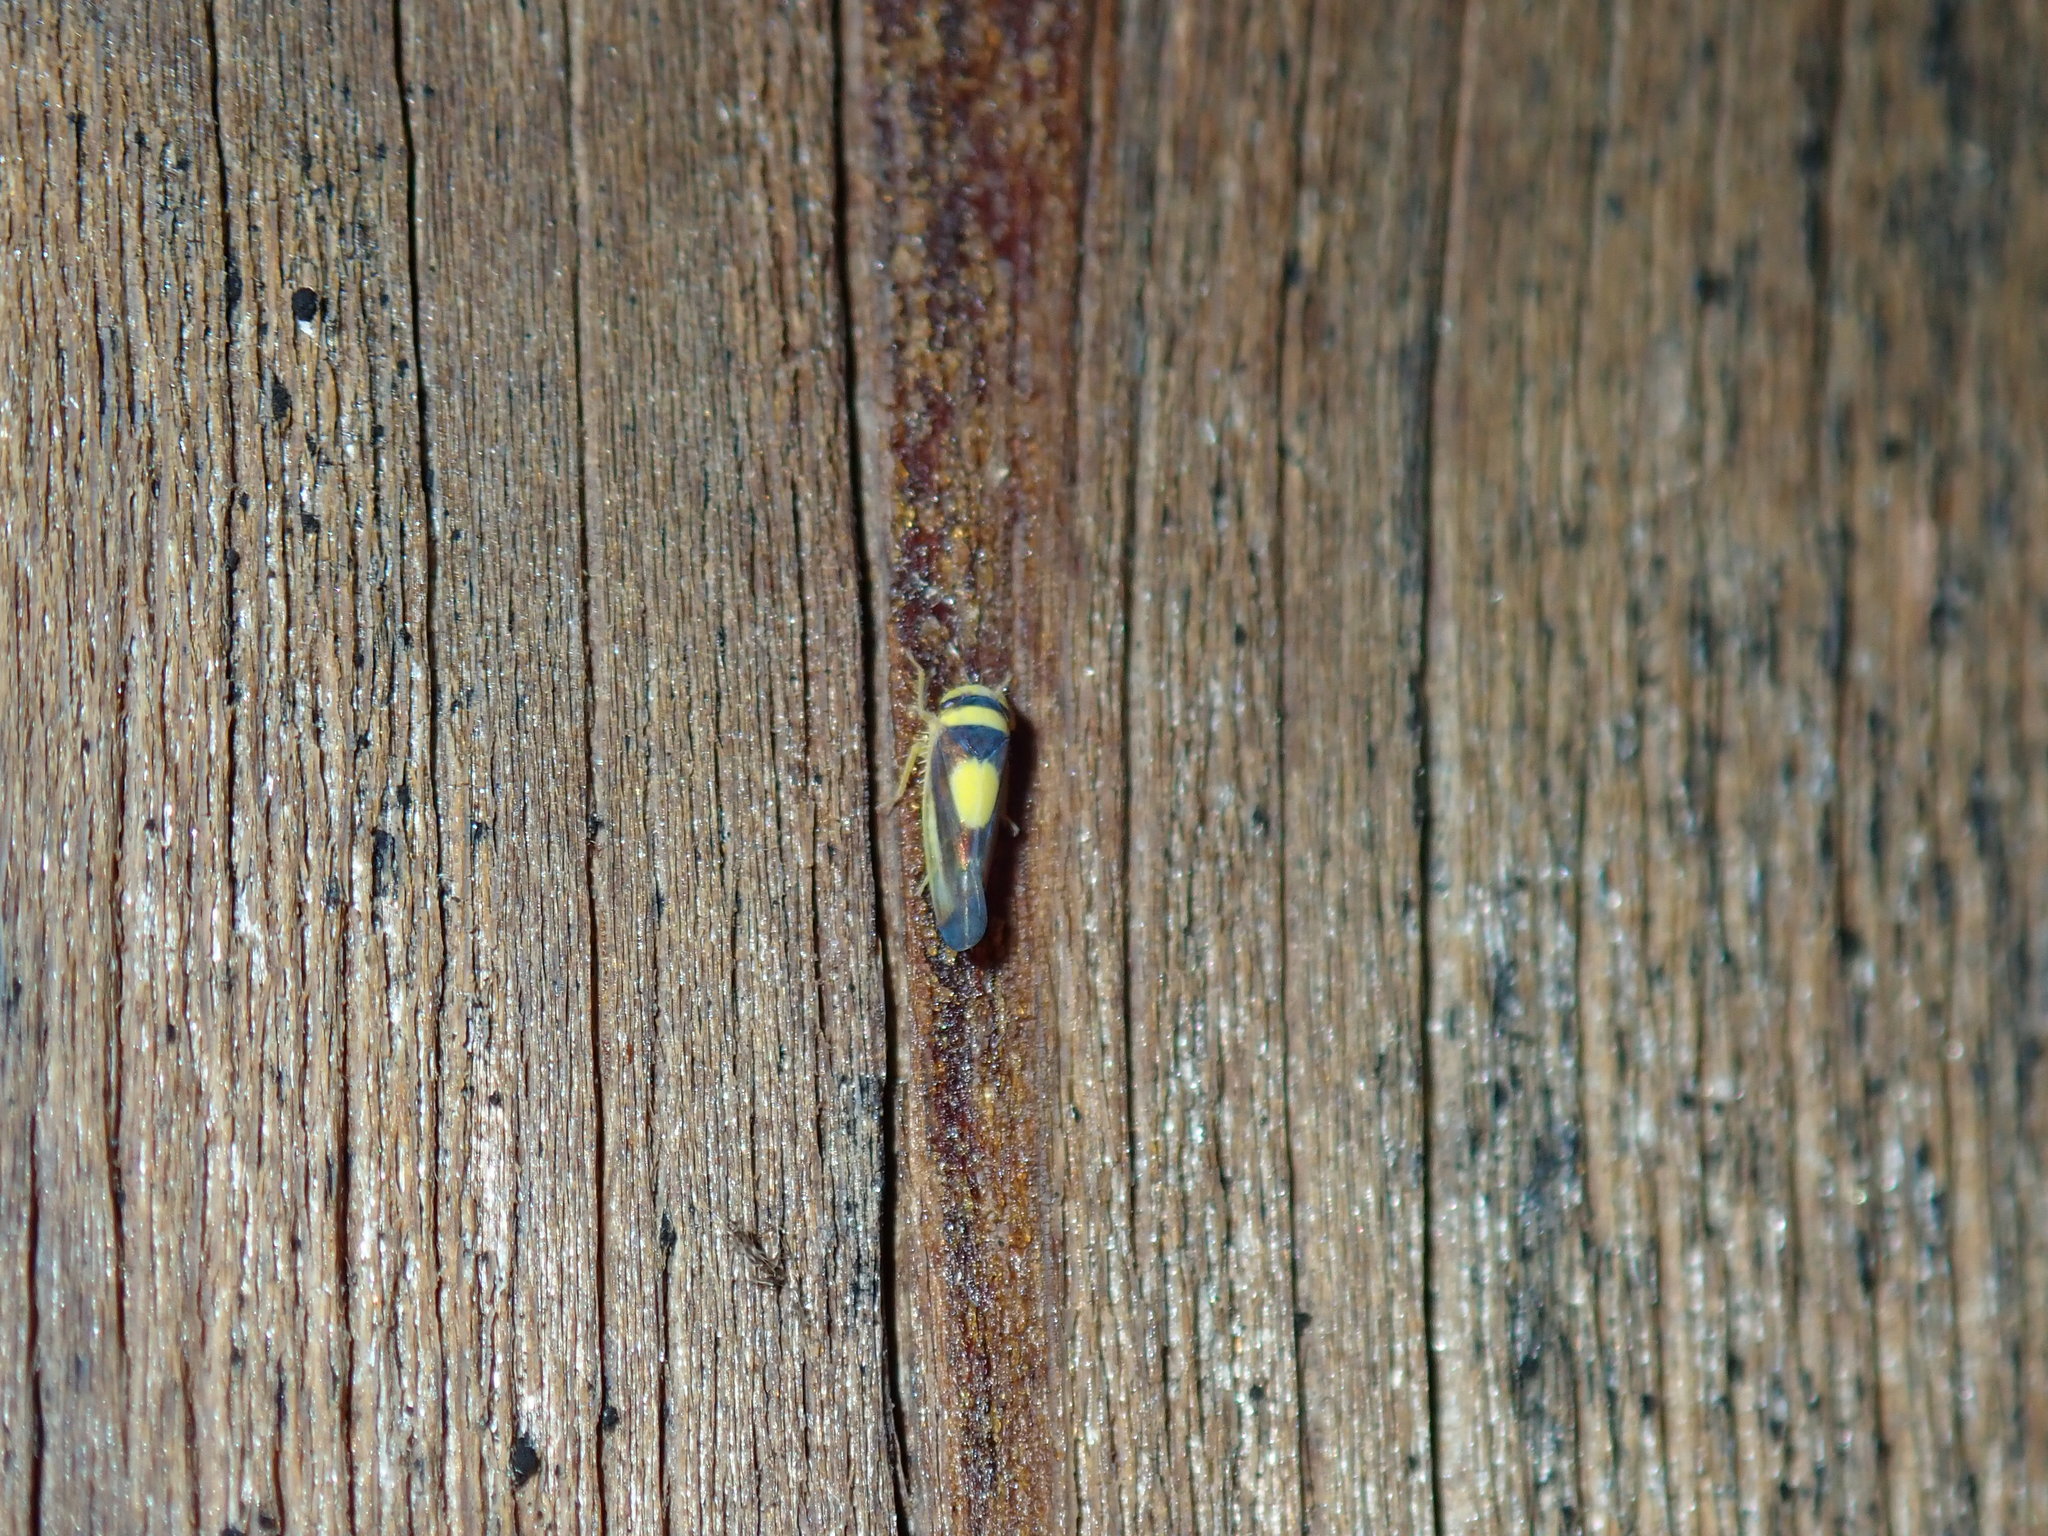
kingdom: Animalia
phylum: Arthropoda
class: Insecta
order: Hemiptera
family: Cicadellidae
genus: Colladonus
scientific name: Colladonus clitellarius
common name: The saddleback leafhopper
